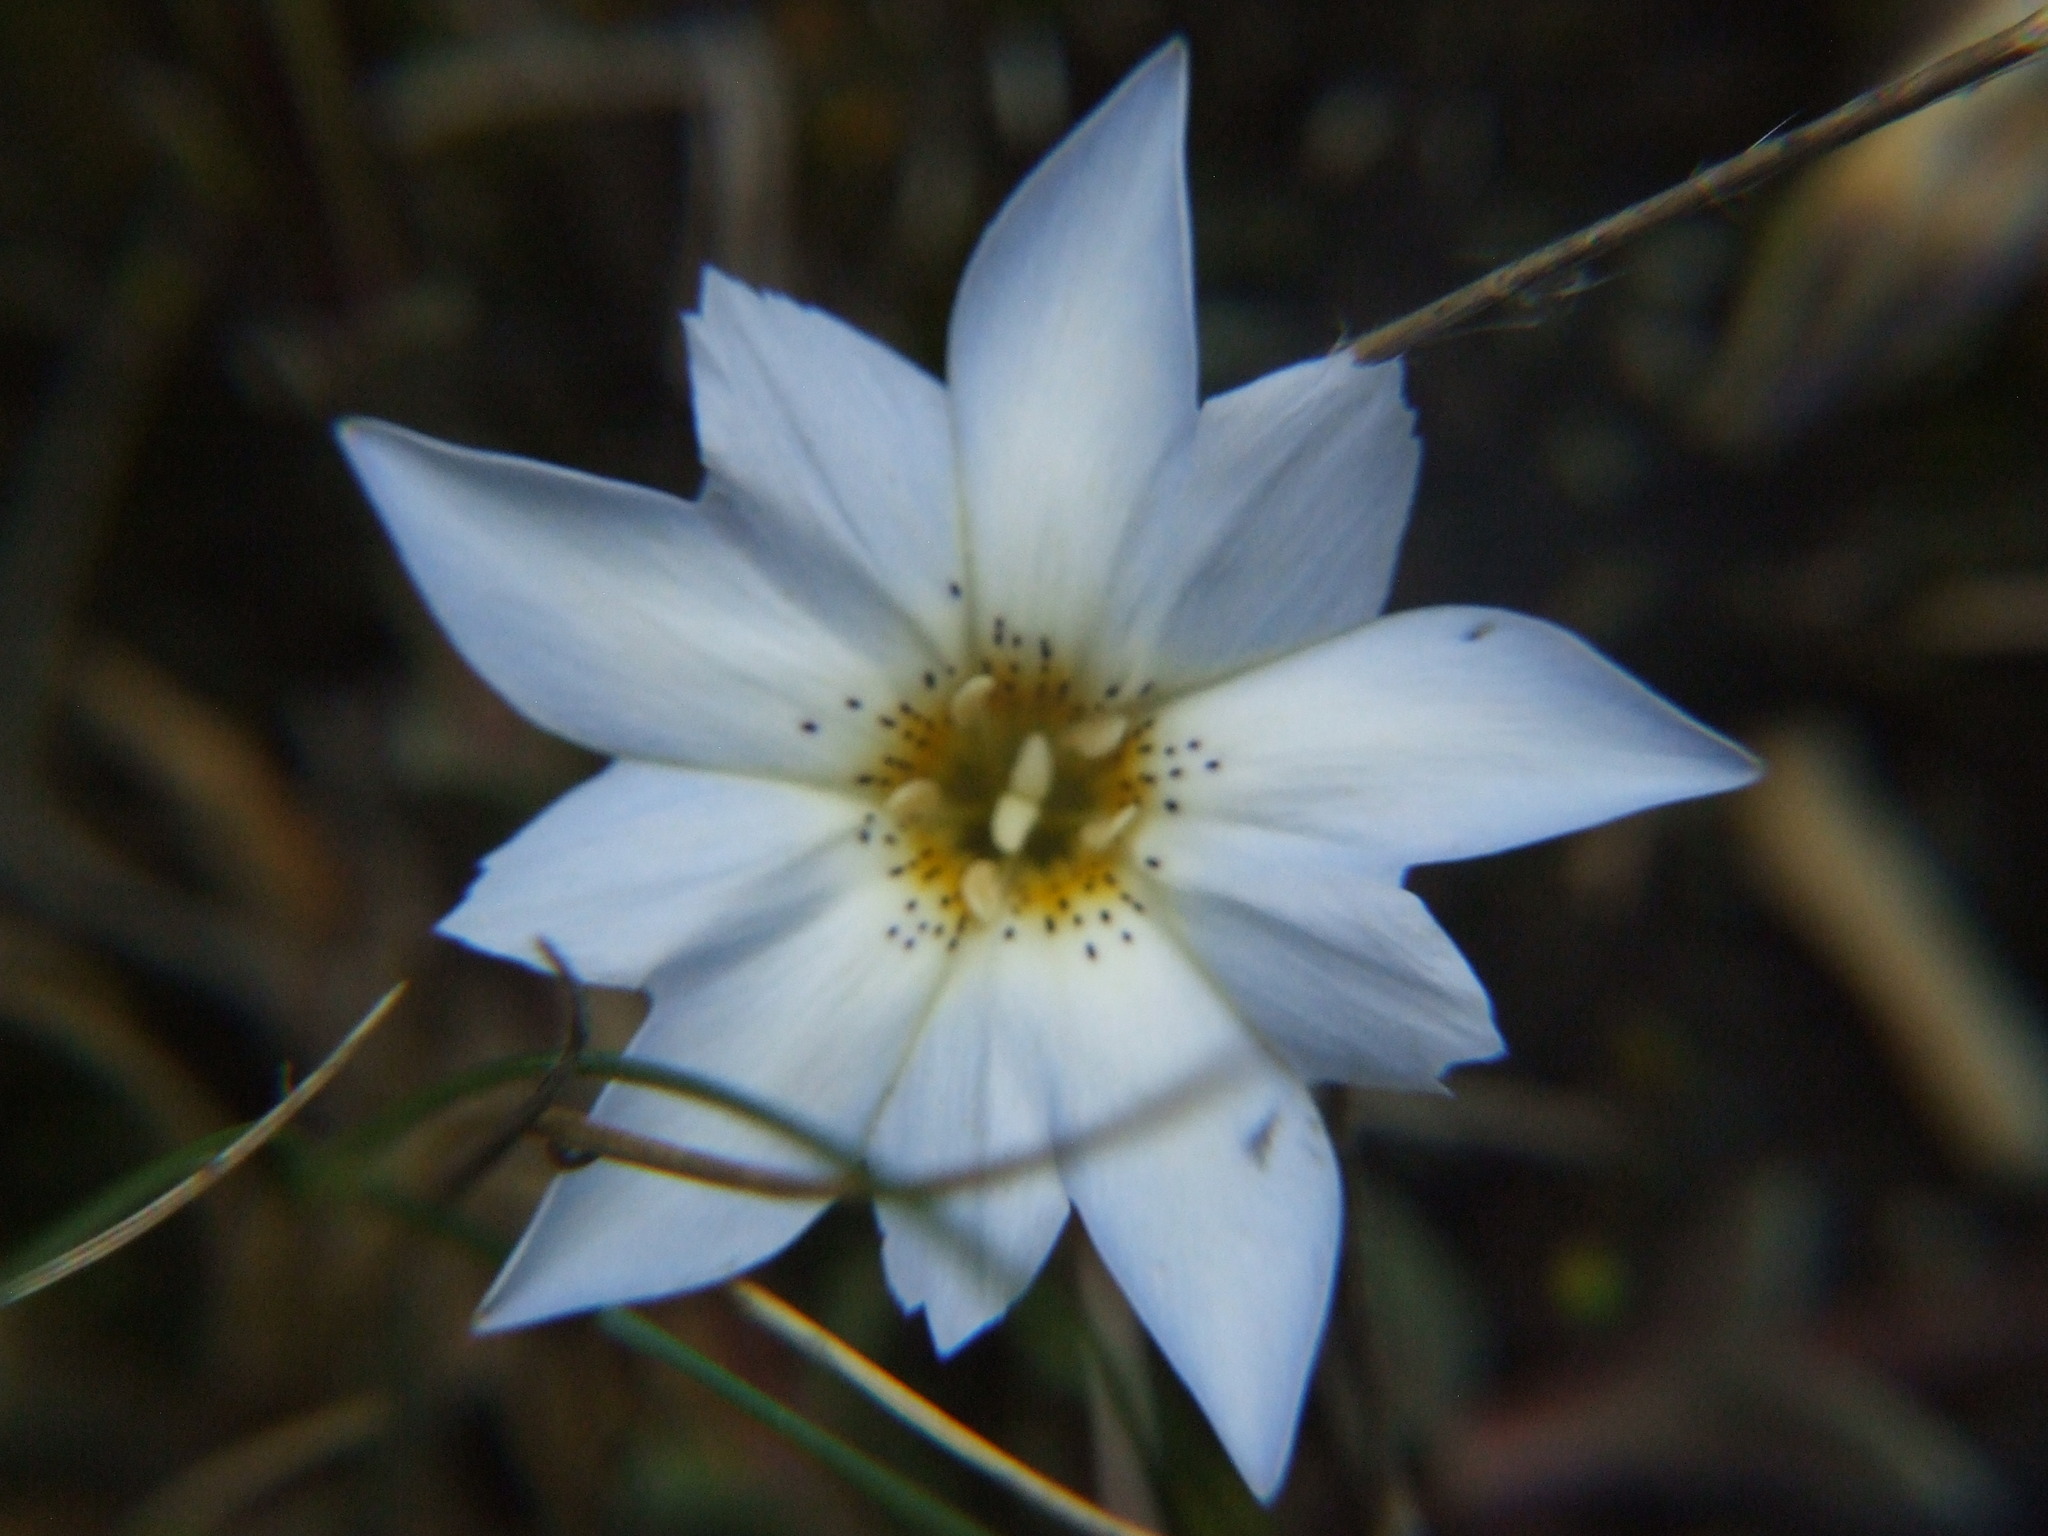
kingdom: Plantae
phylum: Tracheophyta
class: Magnoliopsida
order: Gentianales
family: Gentianaceae
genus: Gentiana
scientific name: Gentiana sedifolia
